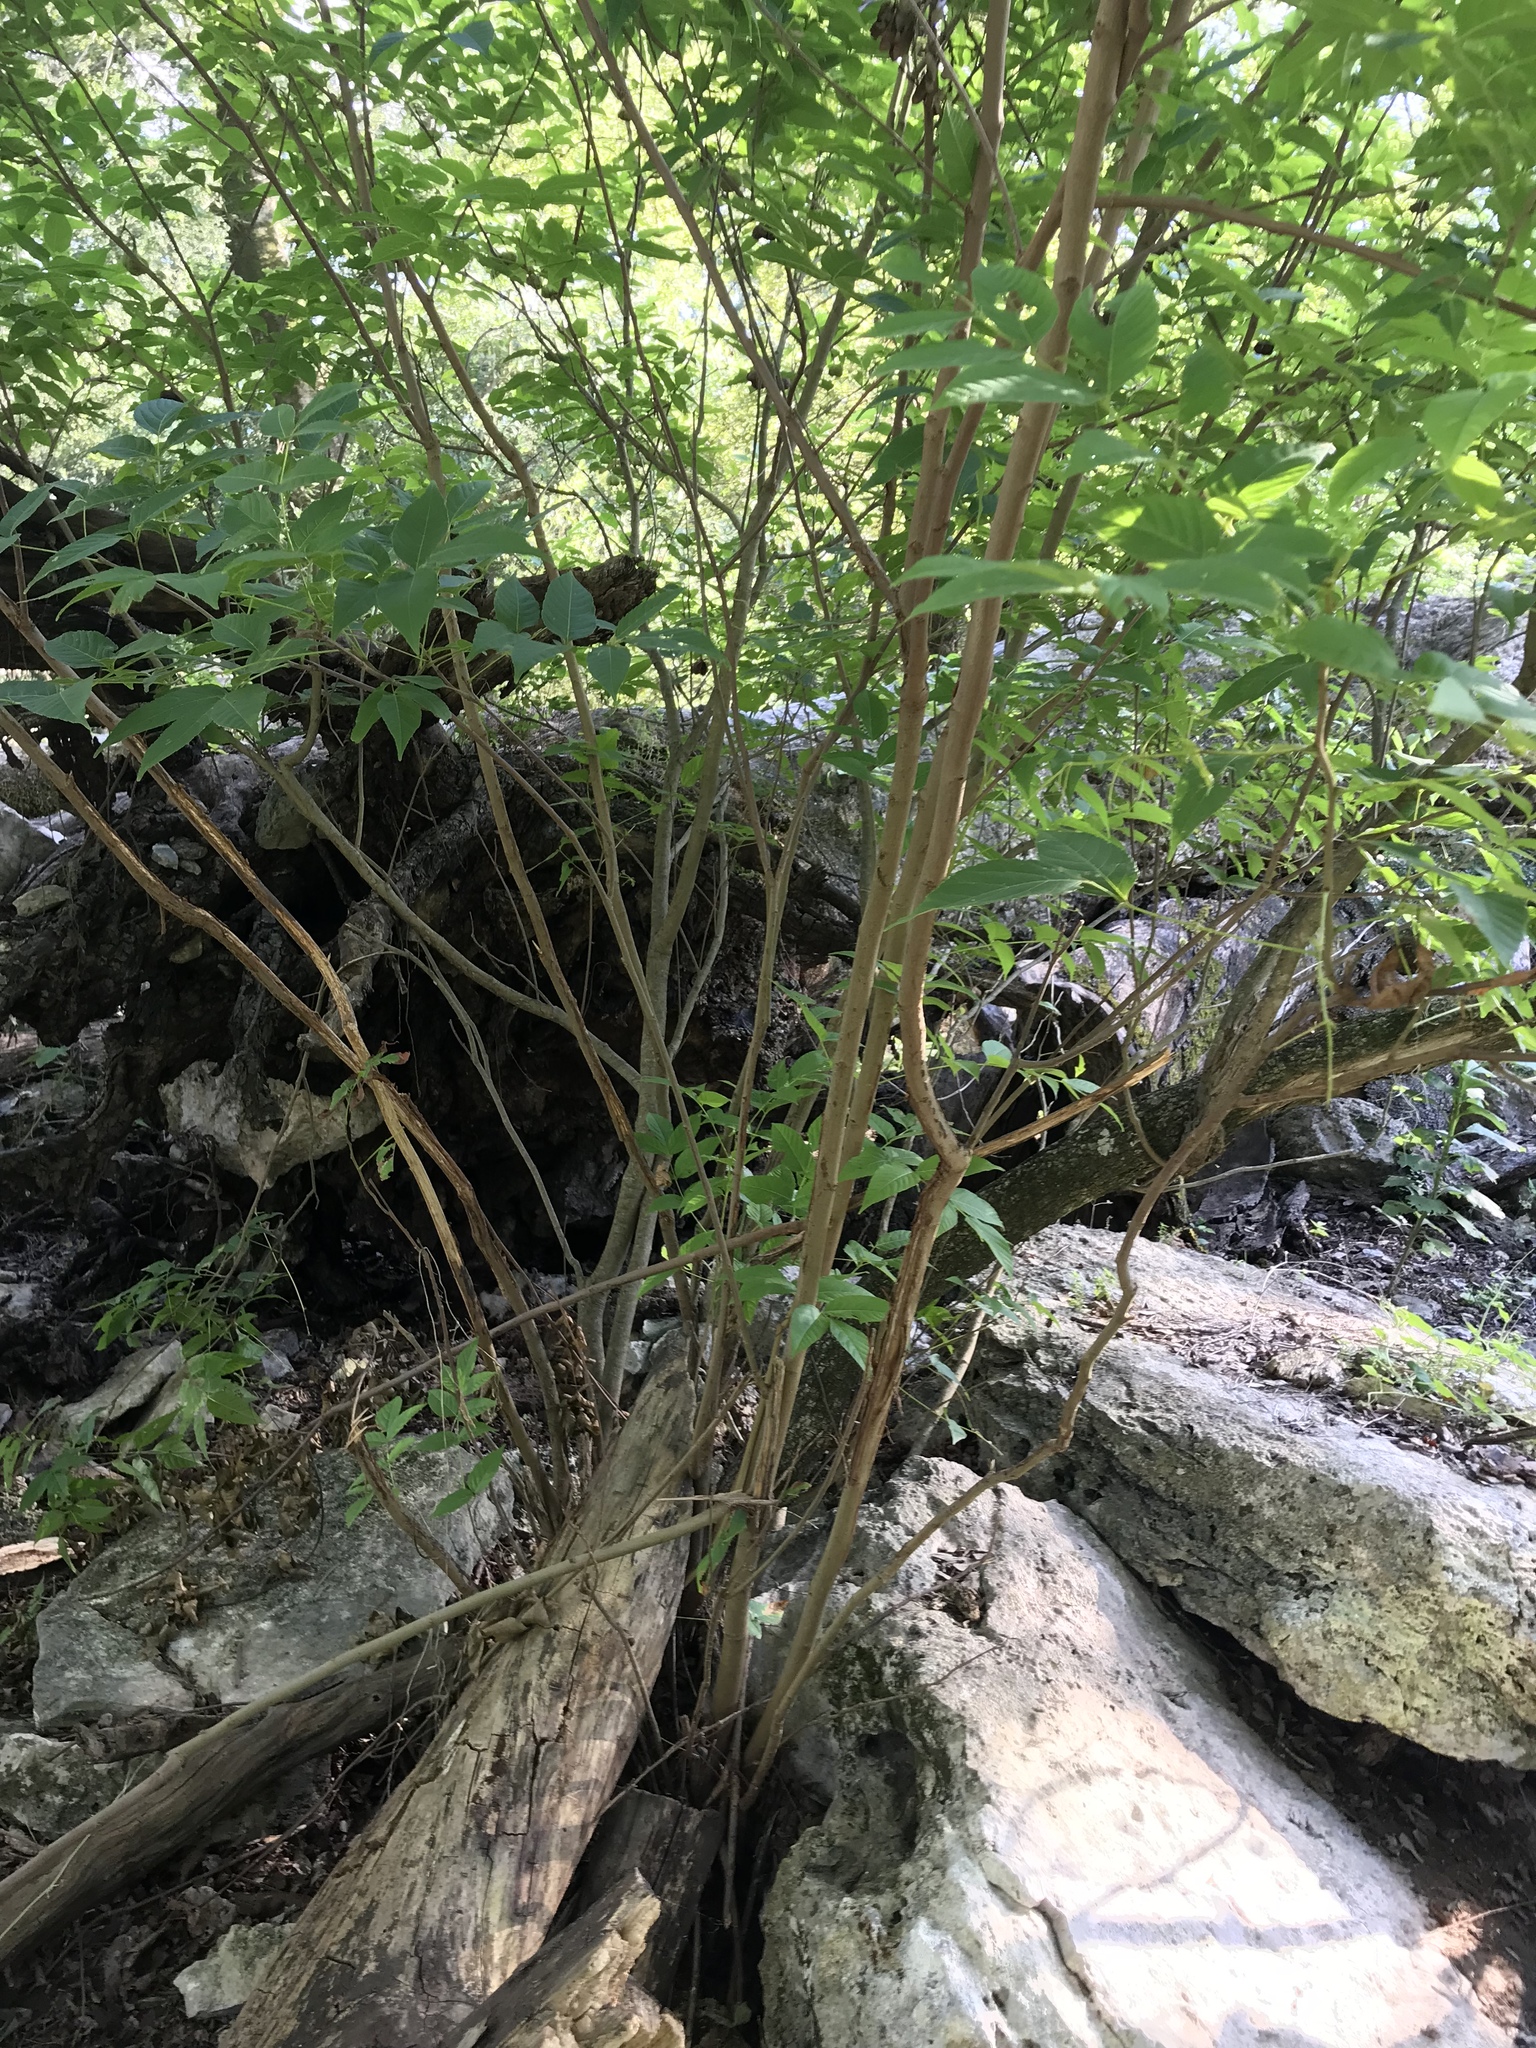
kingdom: Plantae
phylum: Tracheophyta
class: Magnoliopsida
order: Sapindales
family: Sapindaceae
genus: Ungnadia
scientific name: Ungnadia speciosa
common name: Texas-buckeye
